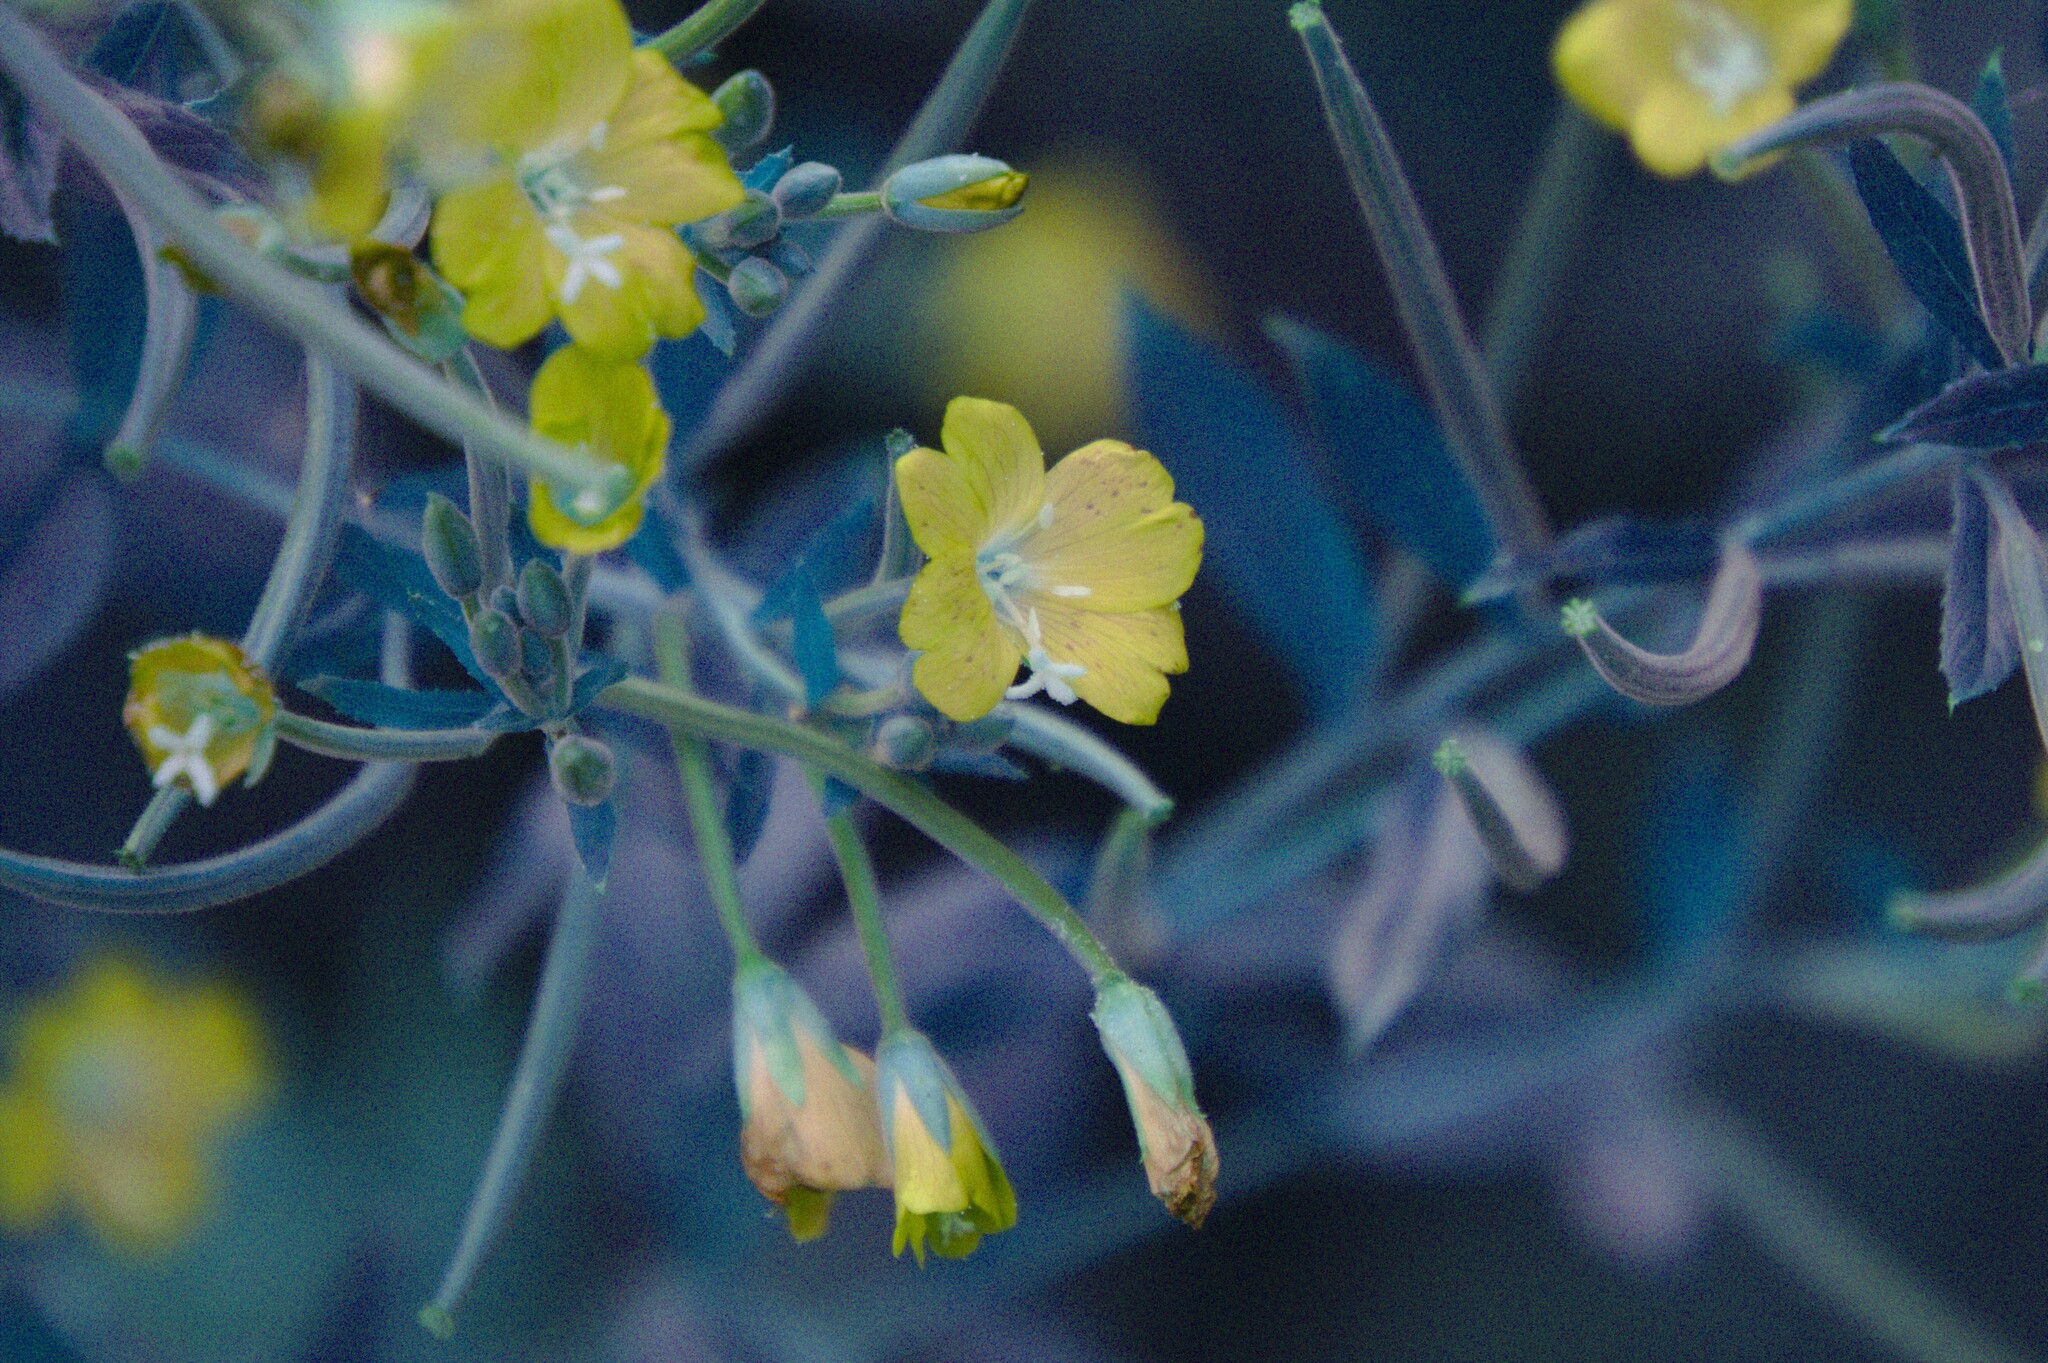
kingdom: Plantae
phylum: Tracheophyta
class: Magnoliopsida
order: Myrtales
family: Onagraceae
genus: Epilobium
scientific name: Epilobium hirsutum
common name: Great willowherb
